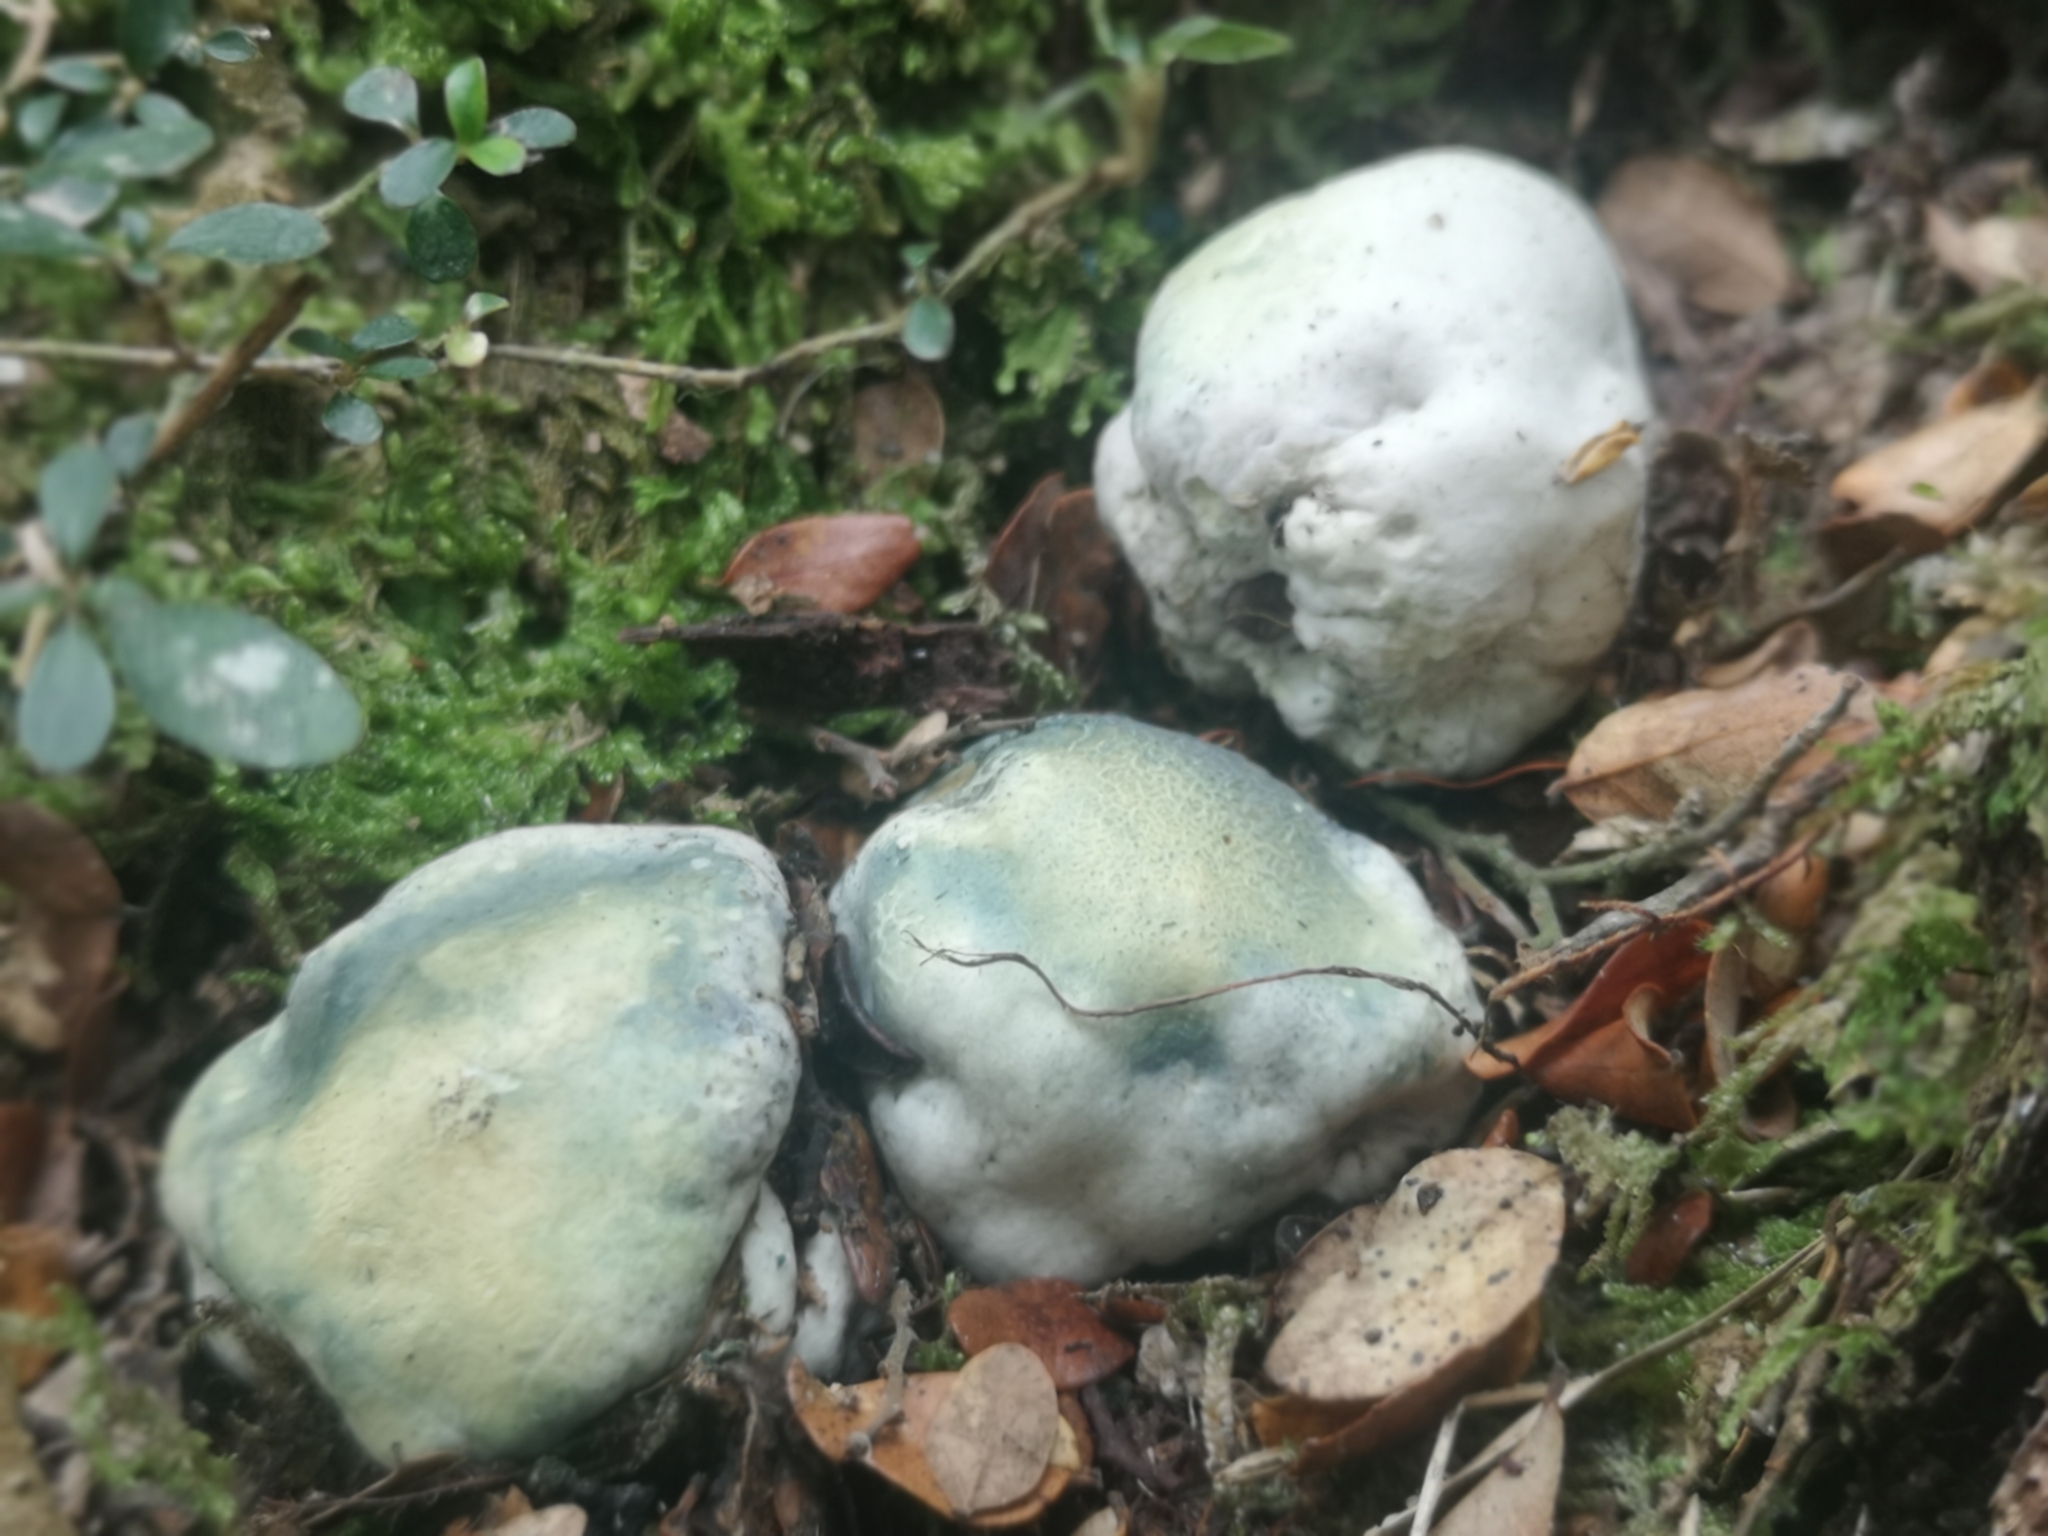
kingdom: Fungi
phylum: Basidiomycota
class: Agaricomycetes
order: Boletales
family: Boletaceae
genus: Leccinum
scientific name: Leccinum pachyderme
